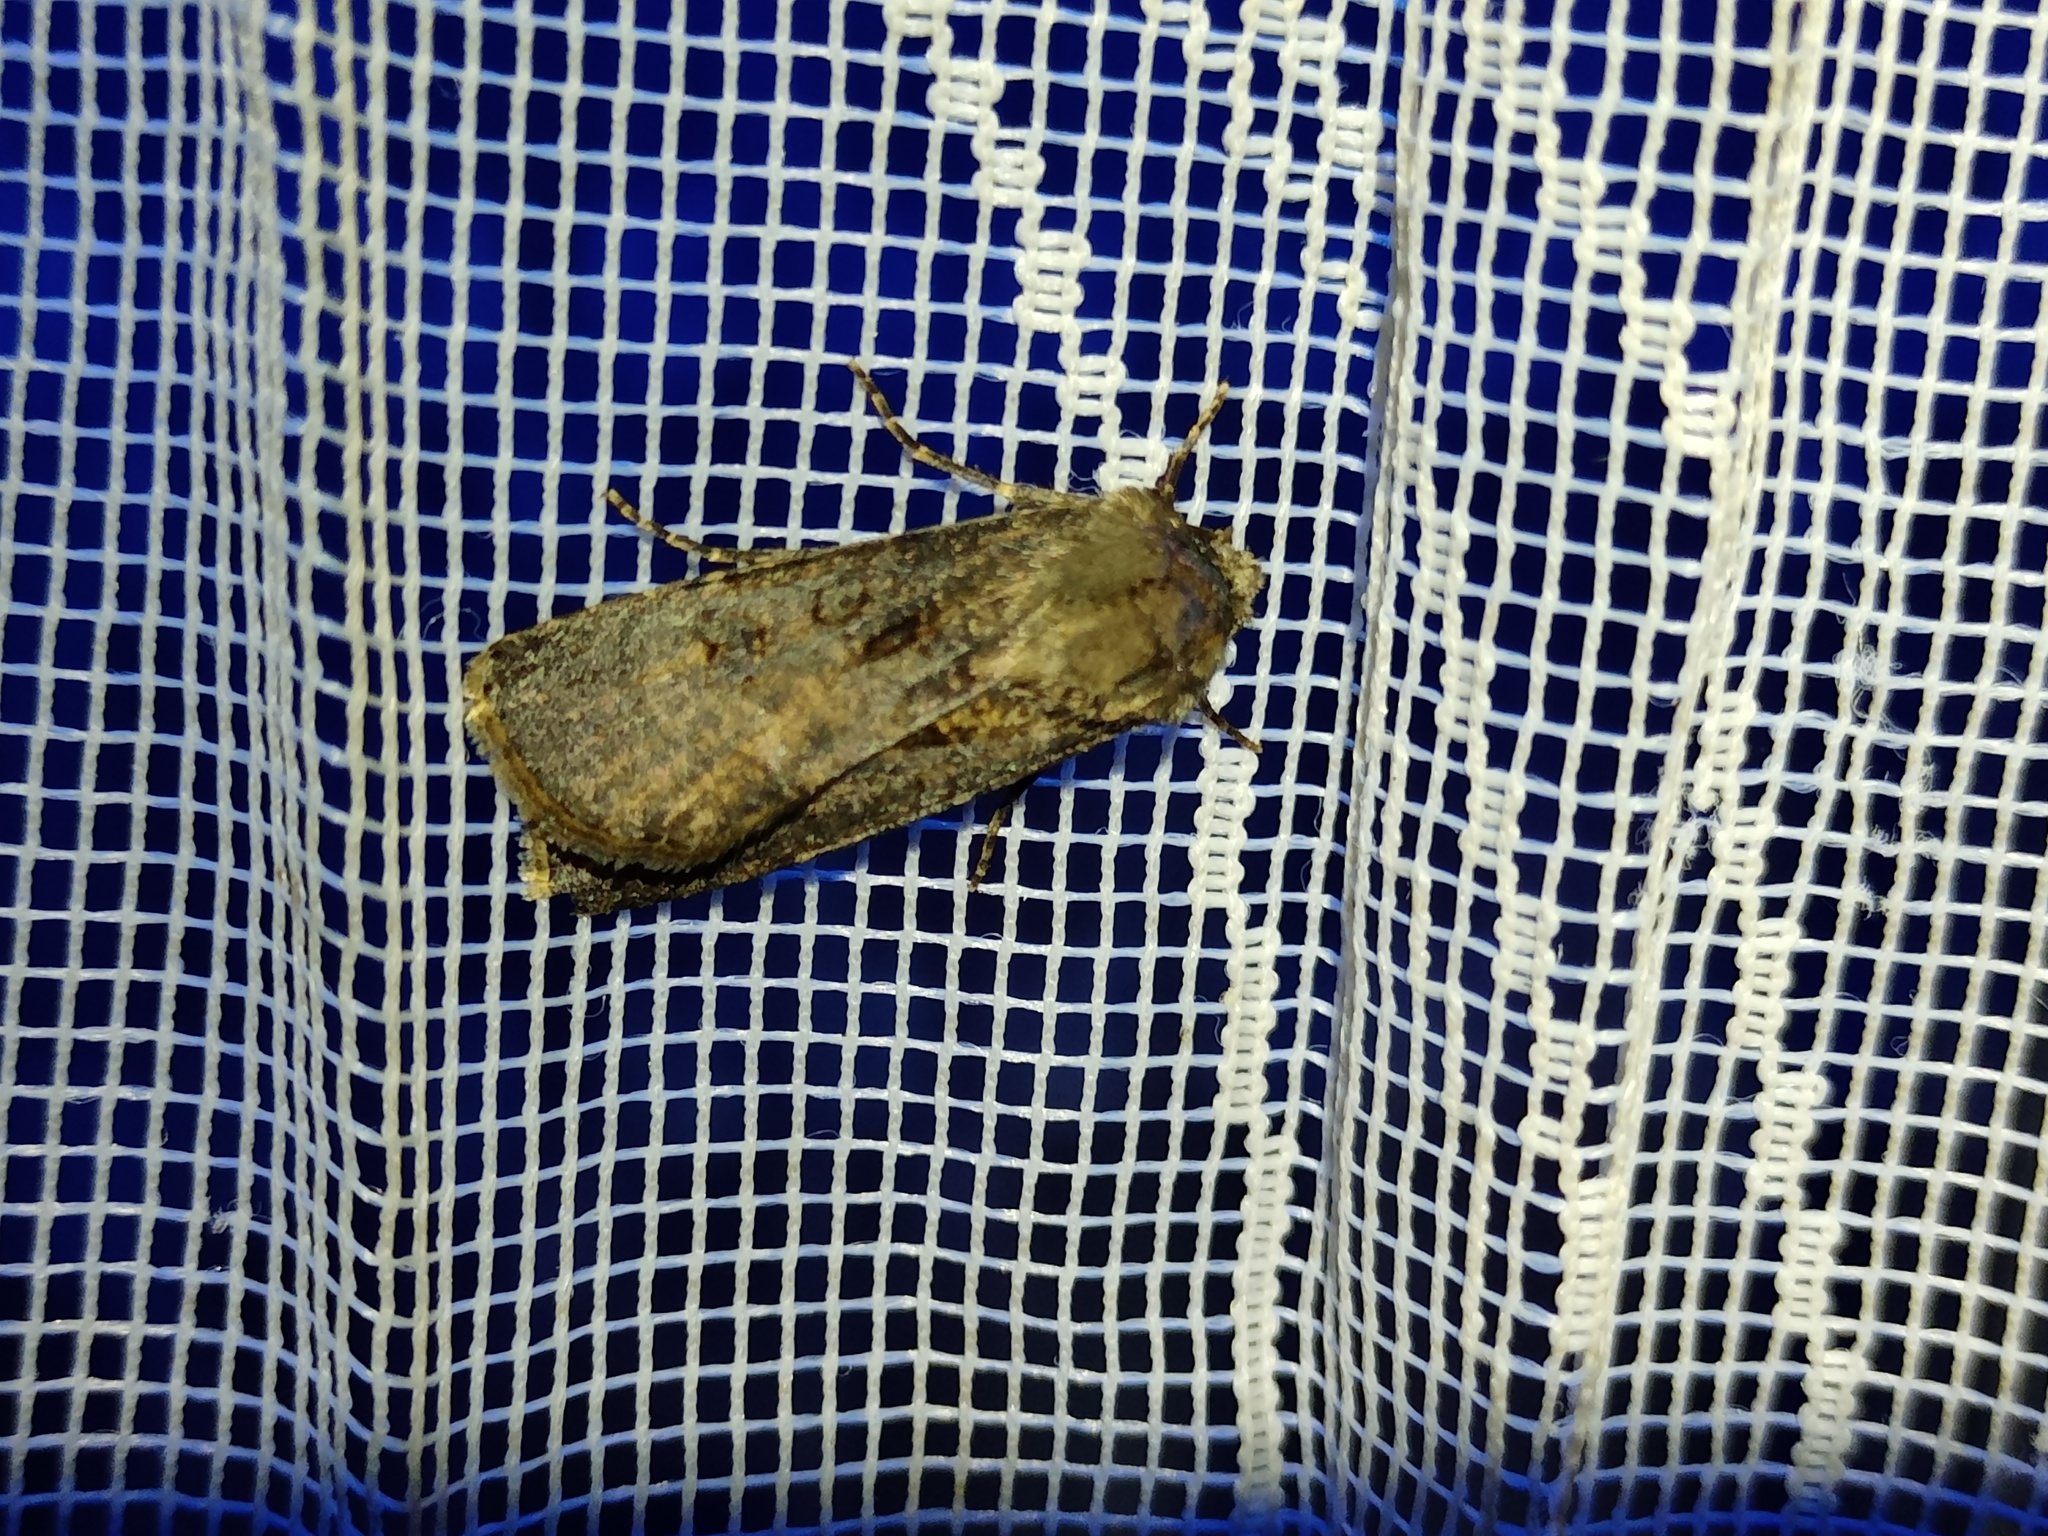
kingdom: Animalia
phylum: Arthropoda
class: Insecta
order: Lepidoptera
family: Noctuidae
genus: Agrotis
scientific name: Agrotis segetum
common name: Turnip moth
